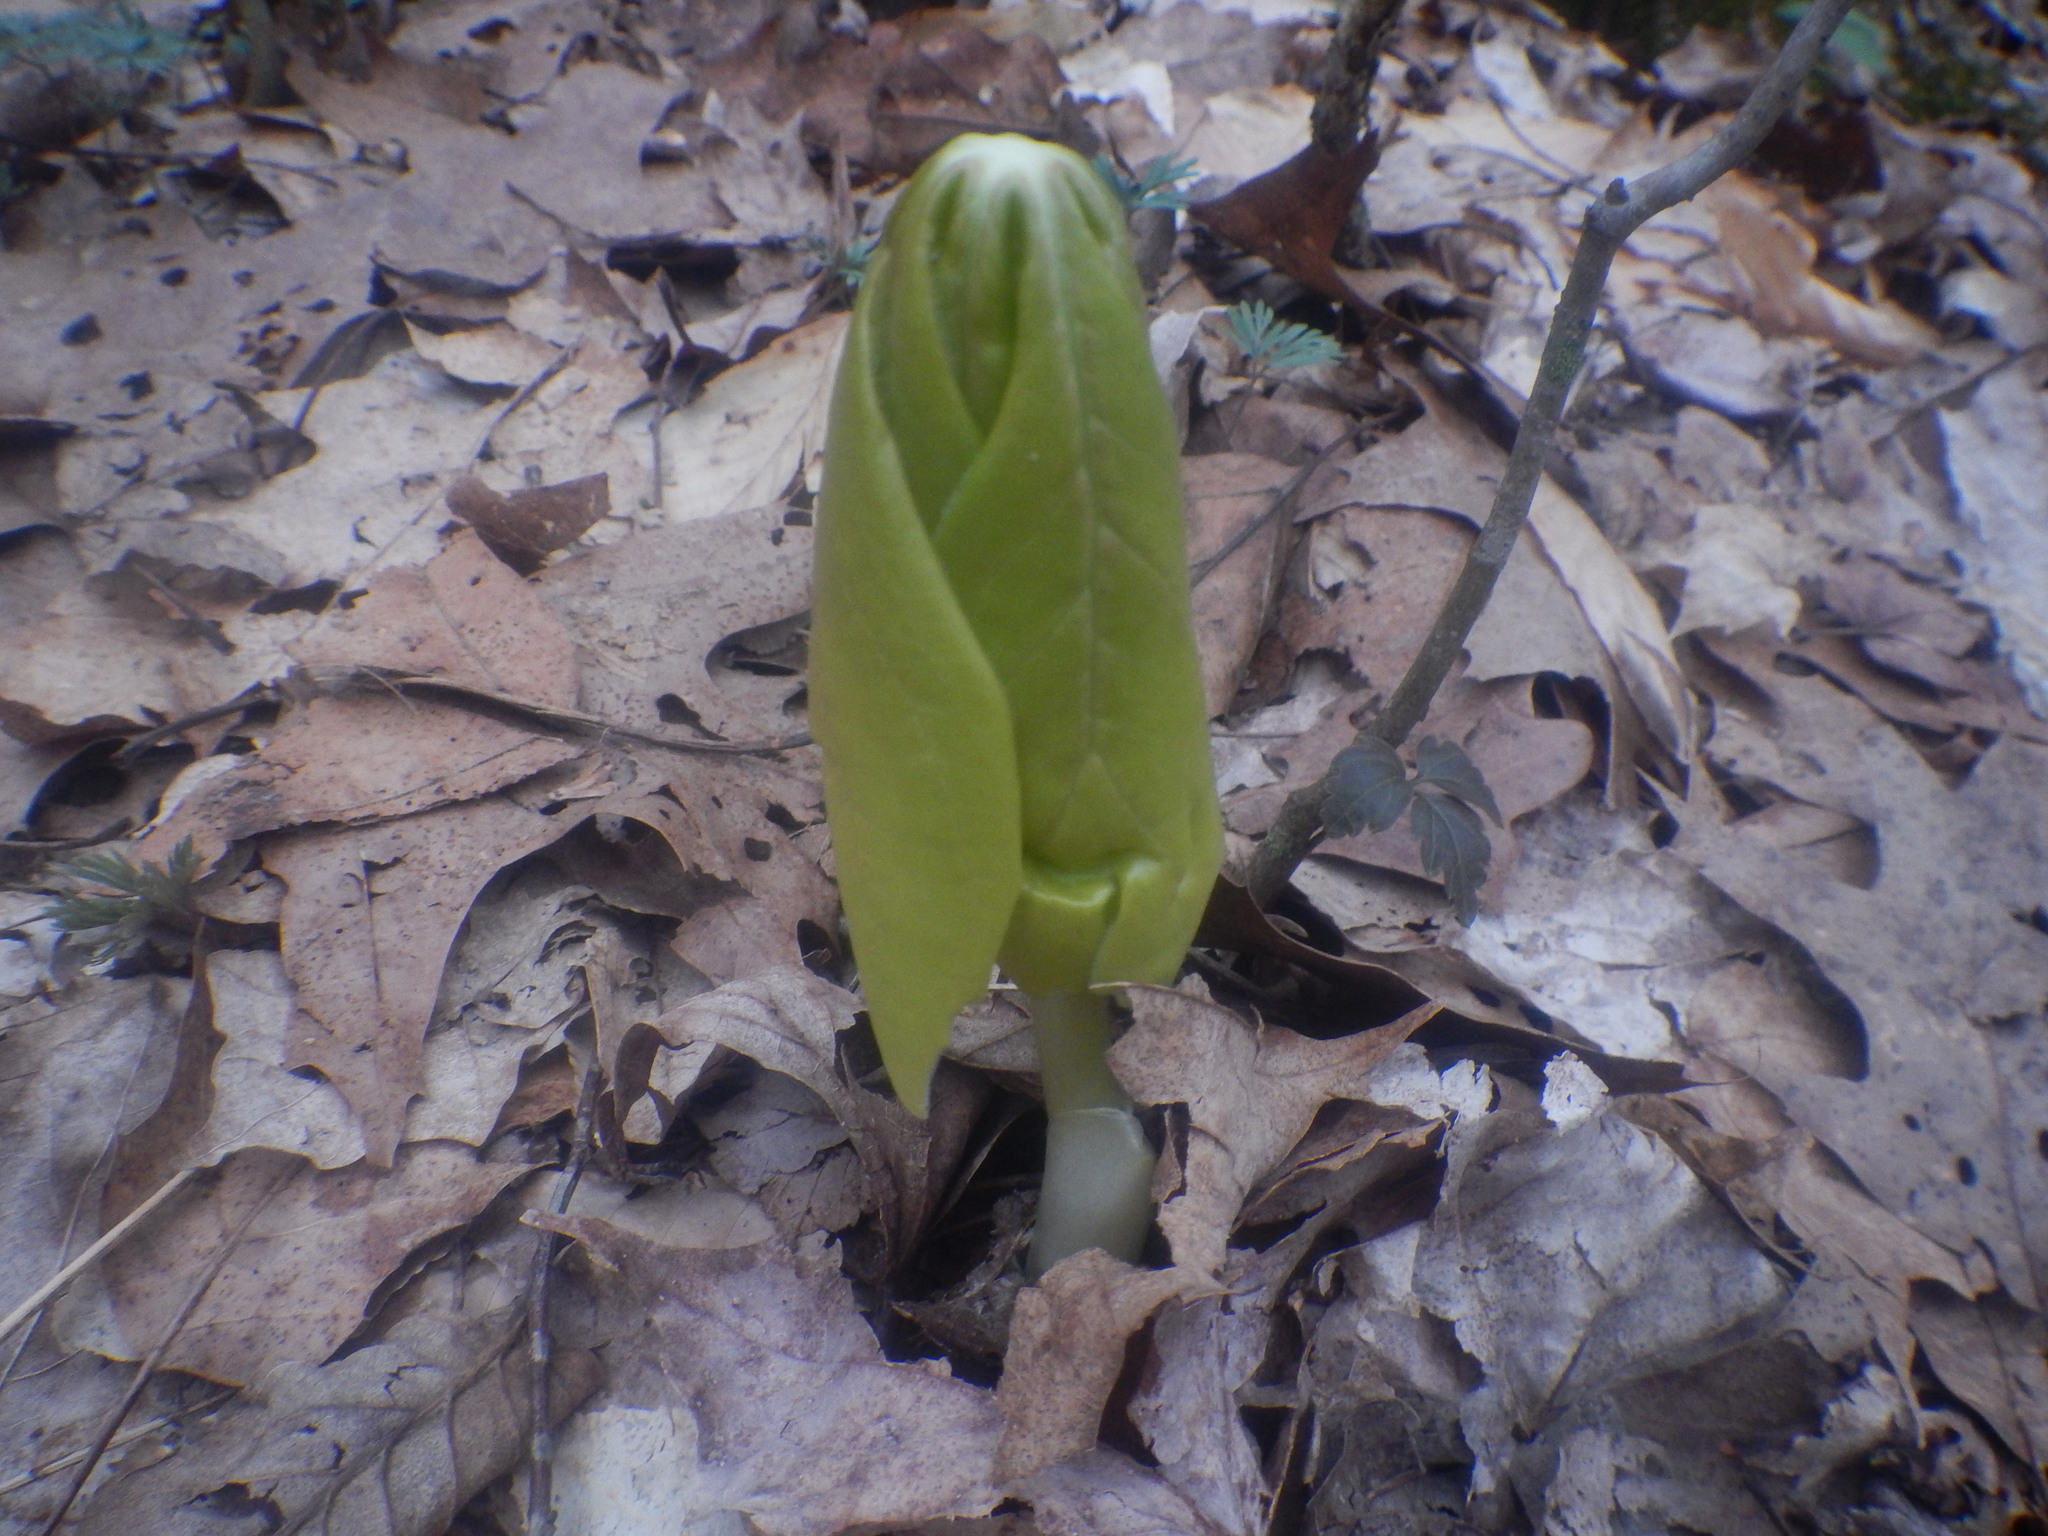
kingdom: Plantae
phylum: Tracheophyta
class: Magnoliopsida
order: Ranunculales
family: Berberidaceae
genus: Podophyllum
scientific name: Podophyllum peltatum
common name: Wild mandrake
